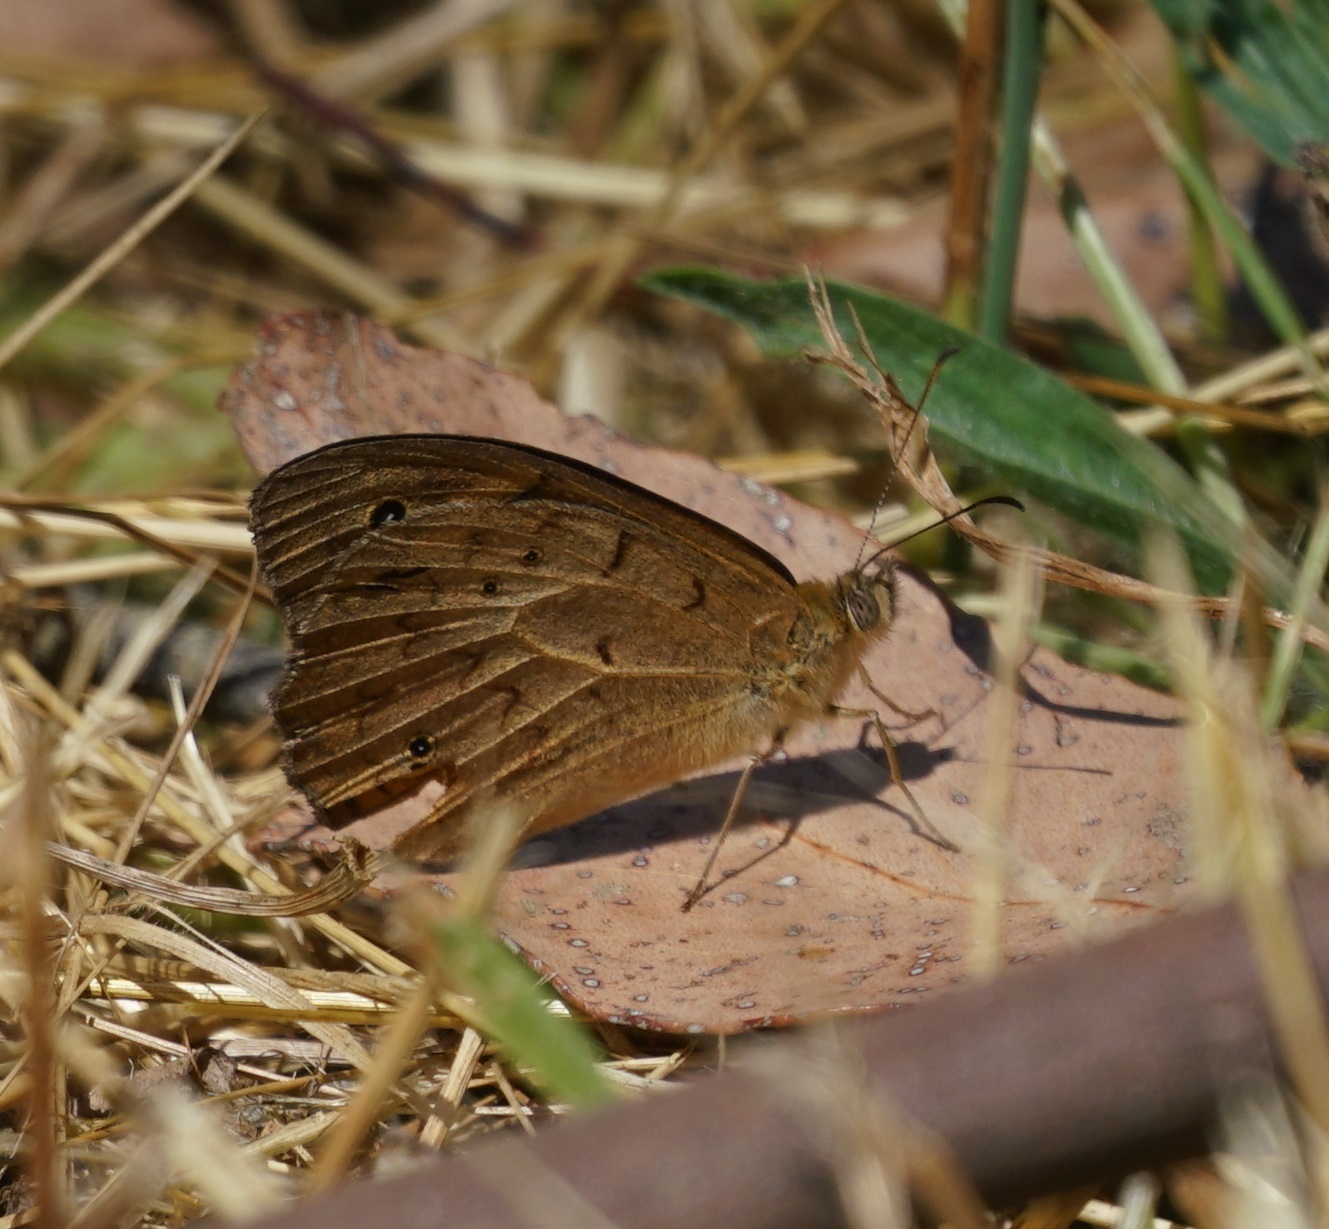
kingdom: Animalia
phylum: Arthropoda
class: Insecta
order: Lepidoptera
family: Nymphalidae
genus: Heteronympha
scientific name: Heteronympha merope
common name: Common brown
